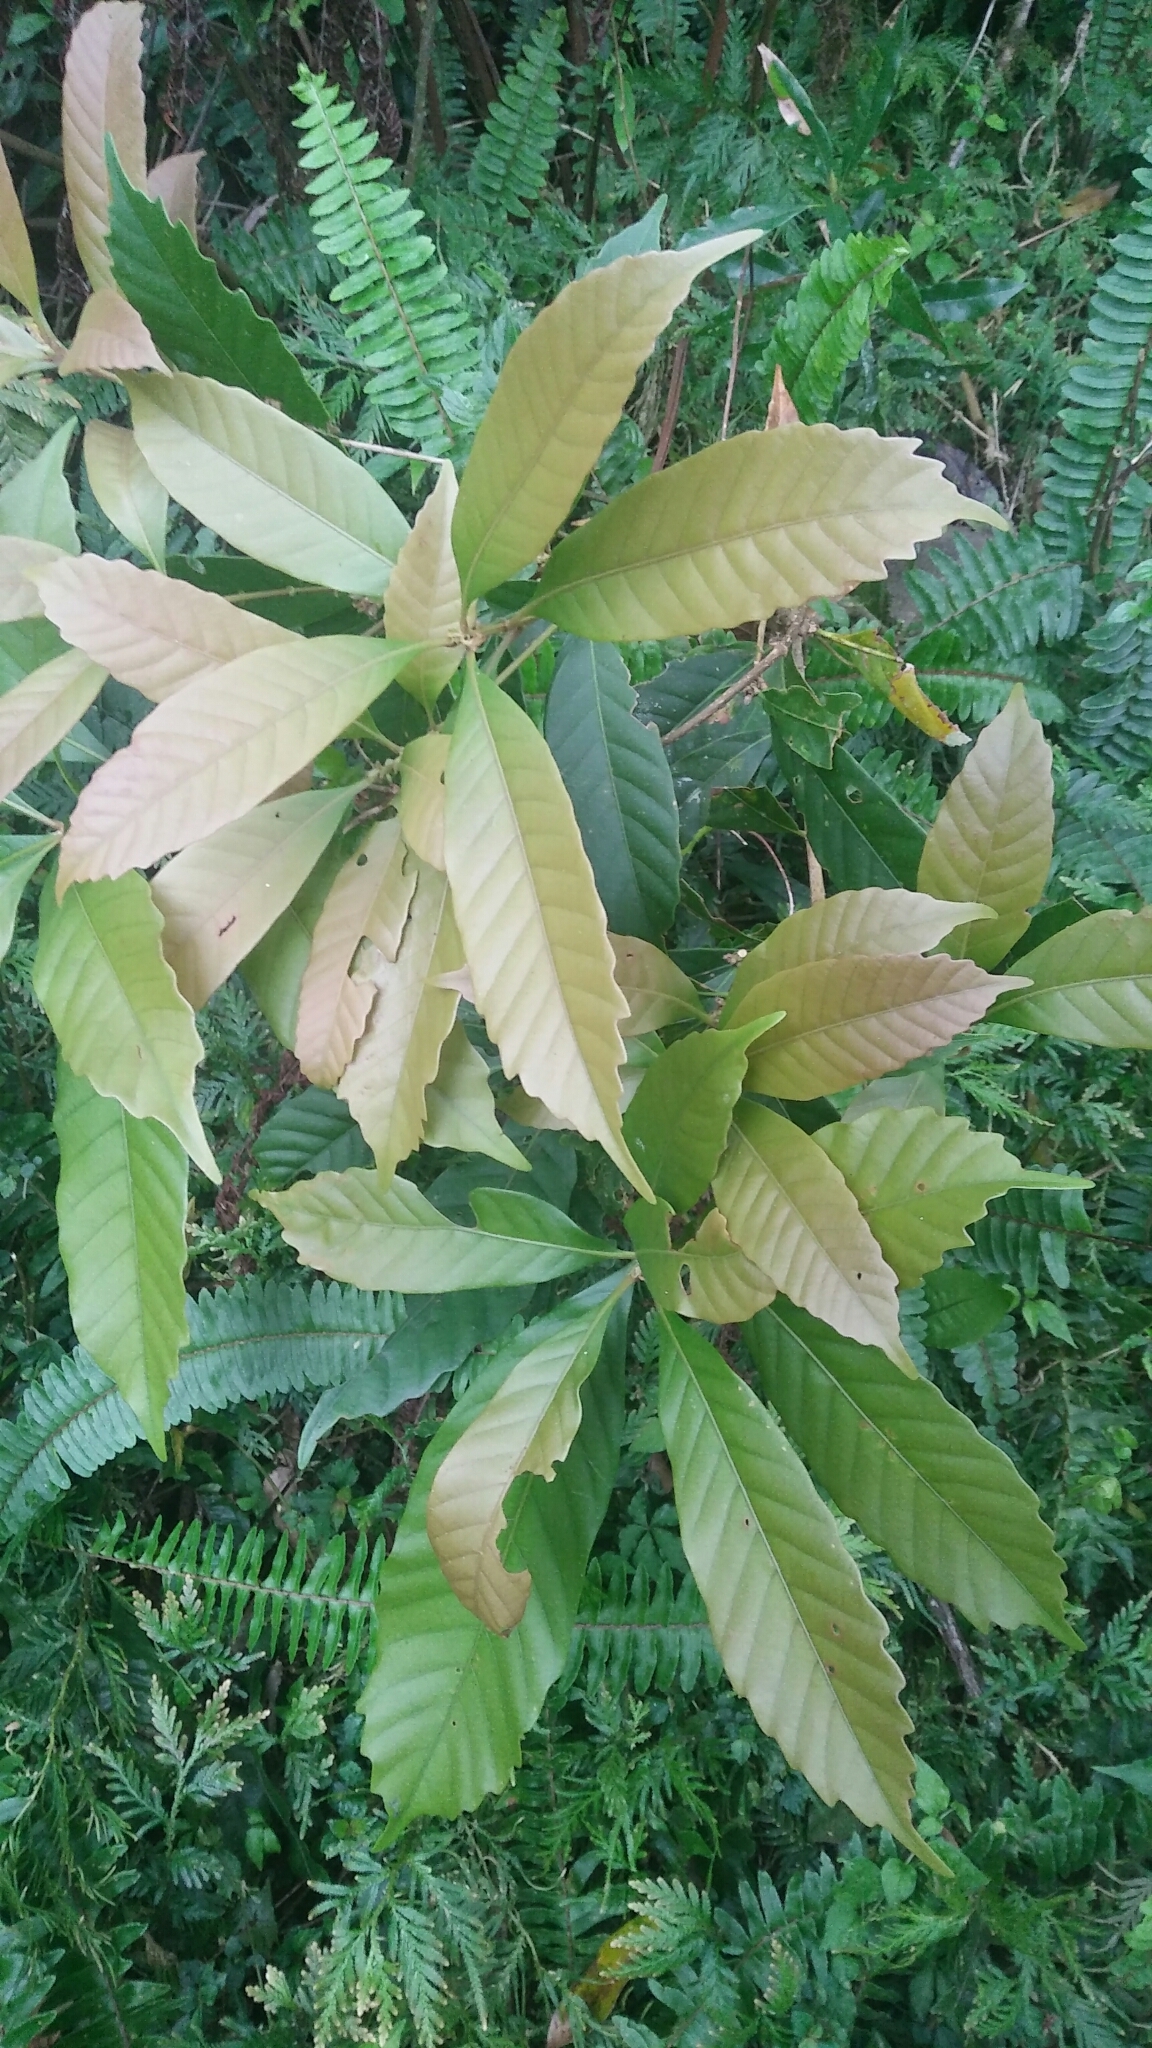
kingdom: Plantae
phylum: Tracheophyta
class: Magnoliopsida
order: Fagales
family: Fagaceae
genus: Lithocarpus
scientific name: Lithocarpus kawakamii
